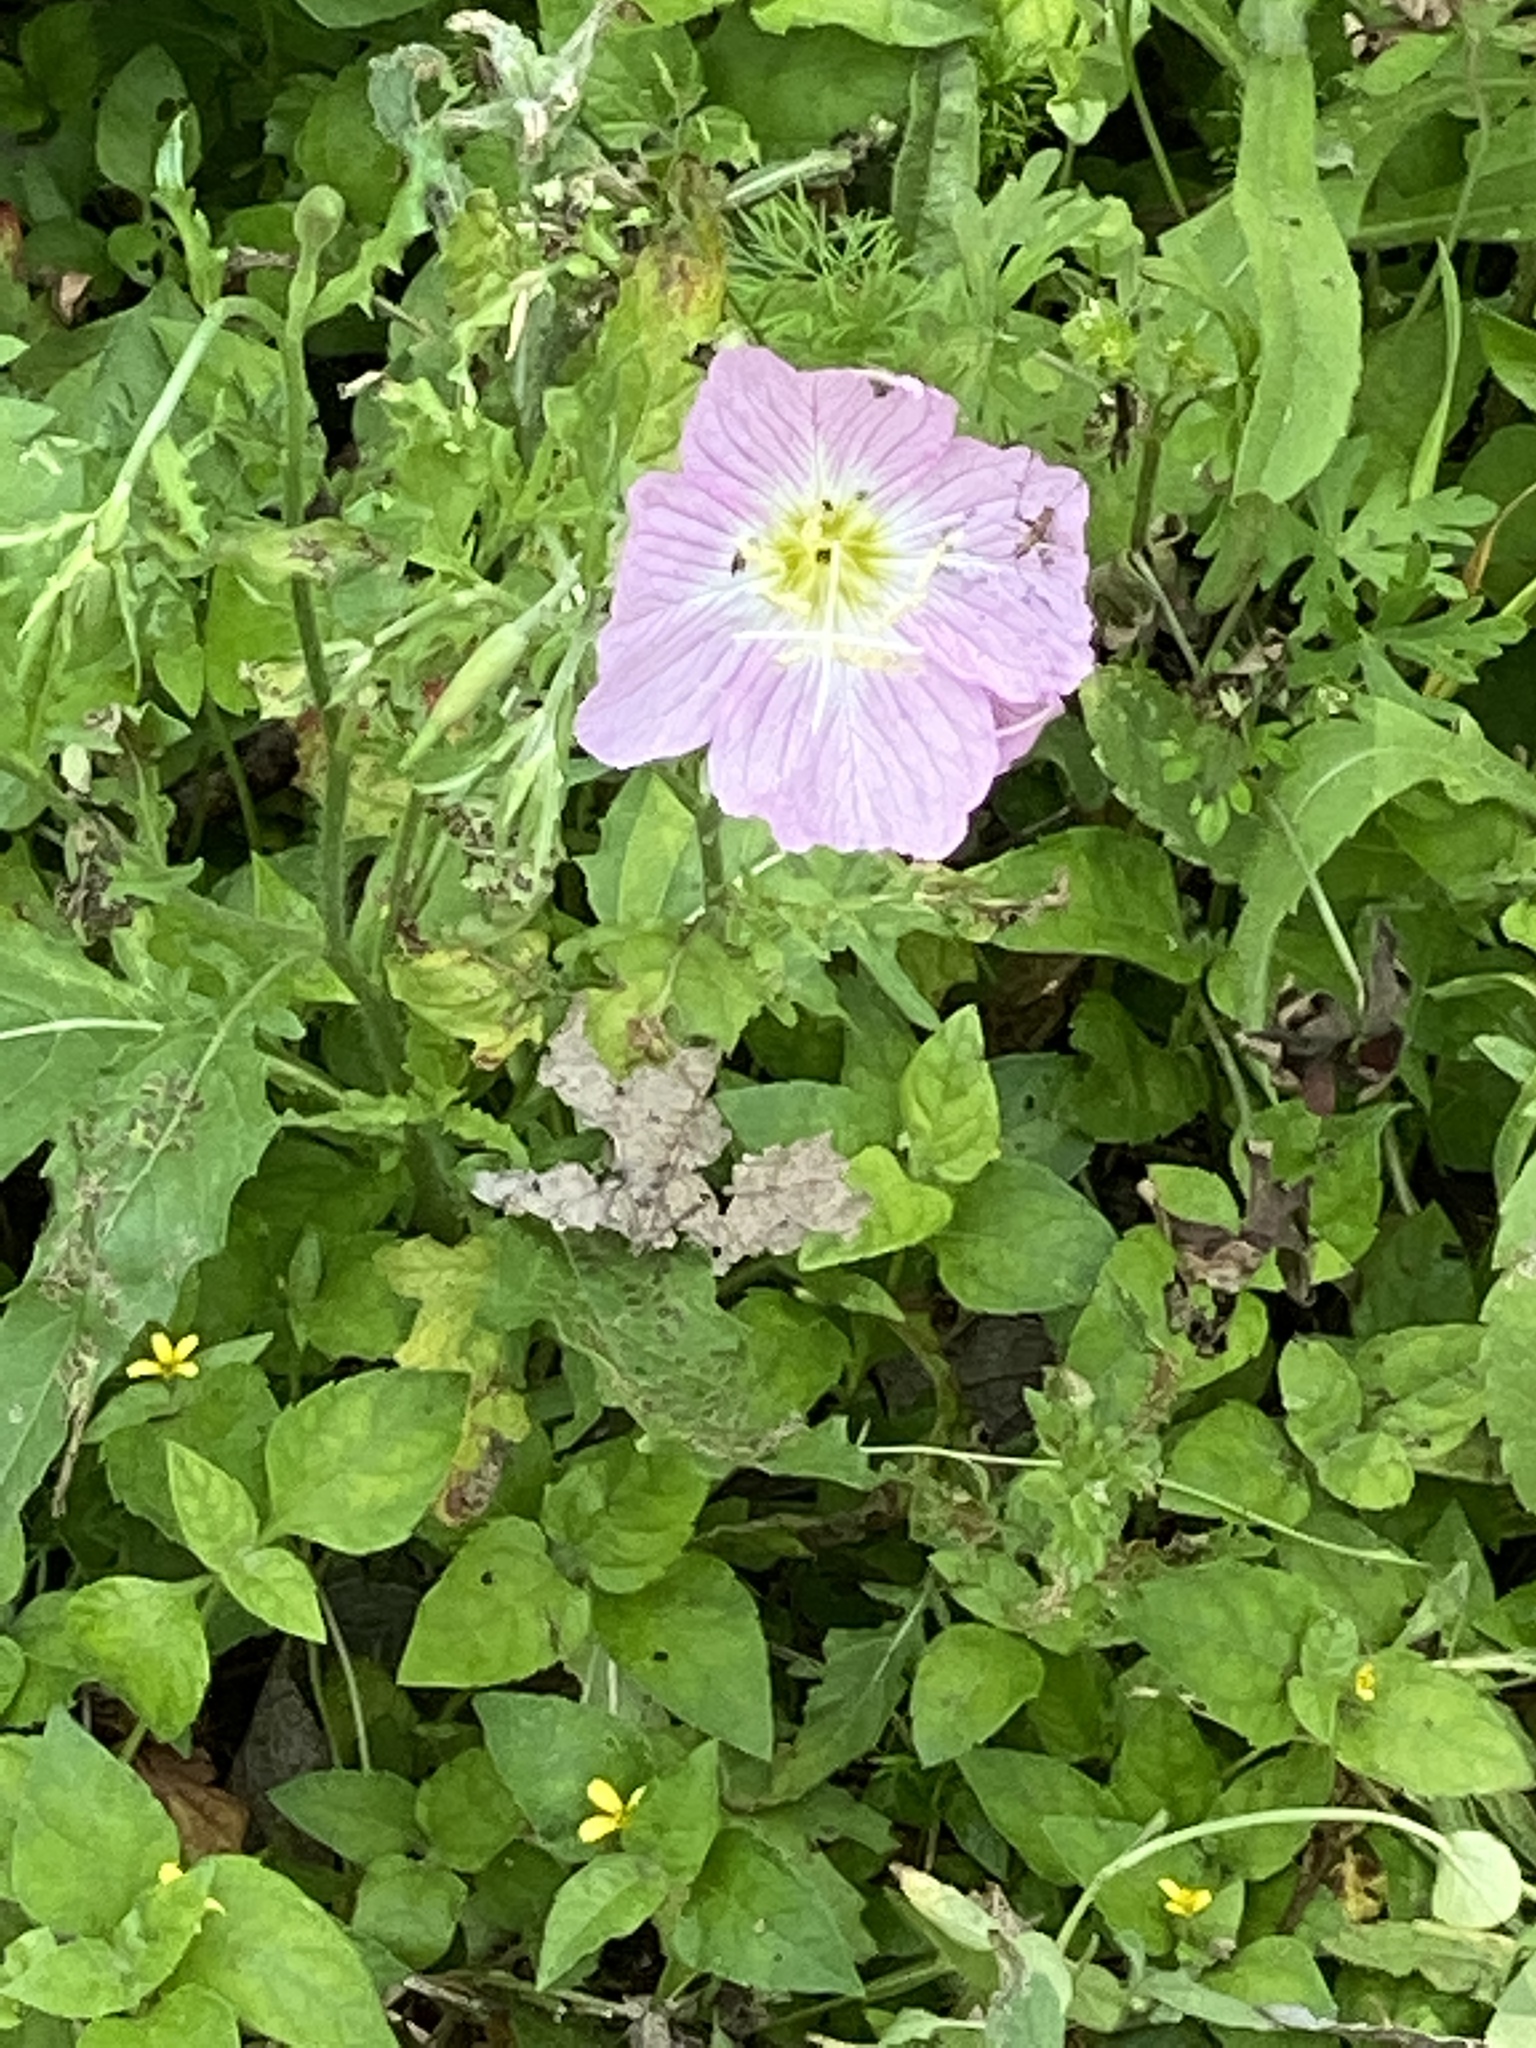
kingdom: Plantae
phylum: Tracheophyta
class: Magnoliopsida
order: Myrtales
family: Onagraceae
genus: Oenothera
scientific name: Oenothera speciosa
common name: White evening-primrose
